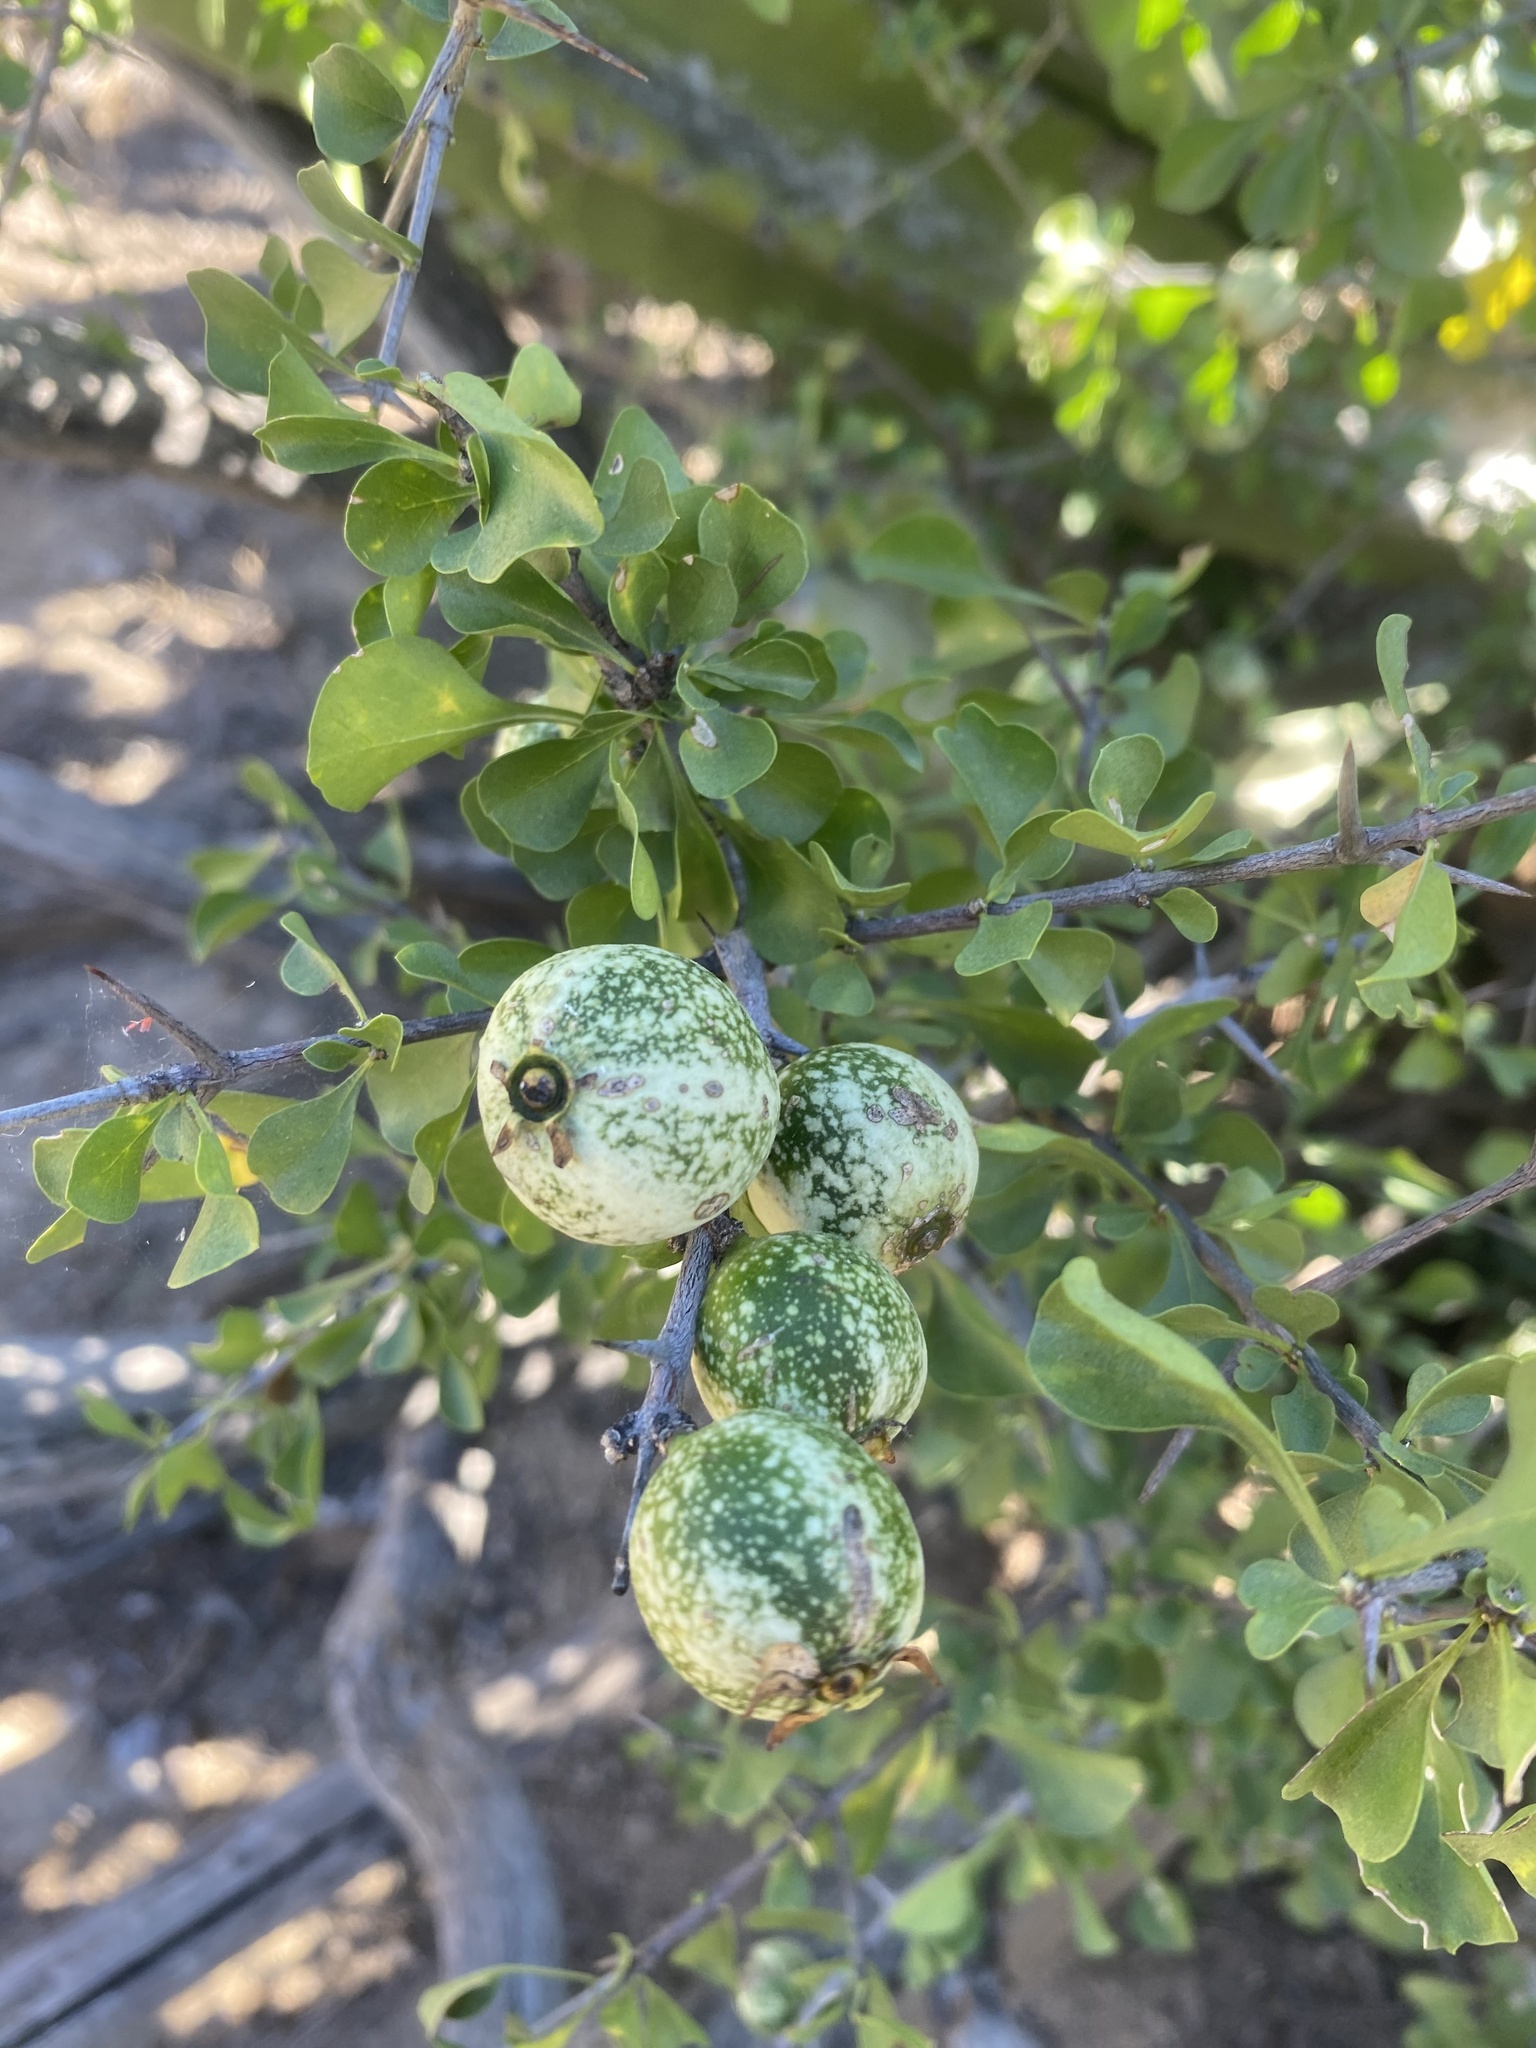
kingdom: Plantae
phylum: Tracheophyta
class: Magnoliopsida
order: Gentianales
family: Rubiaceae
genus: Randia
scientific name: Randia thurberi
